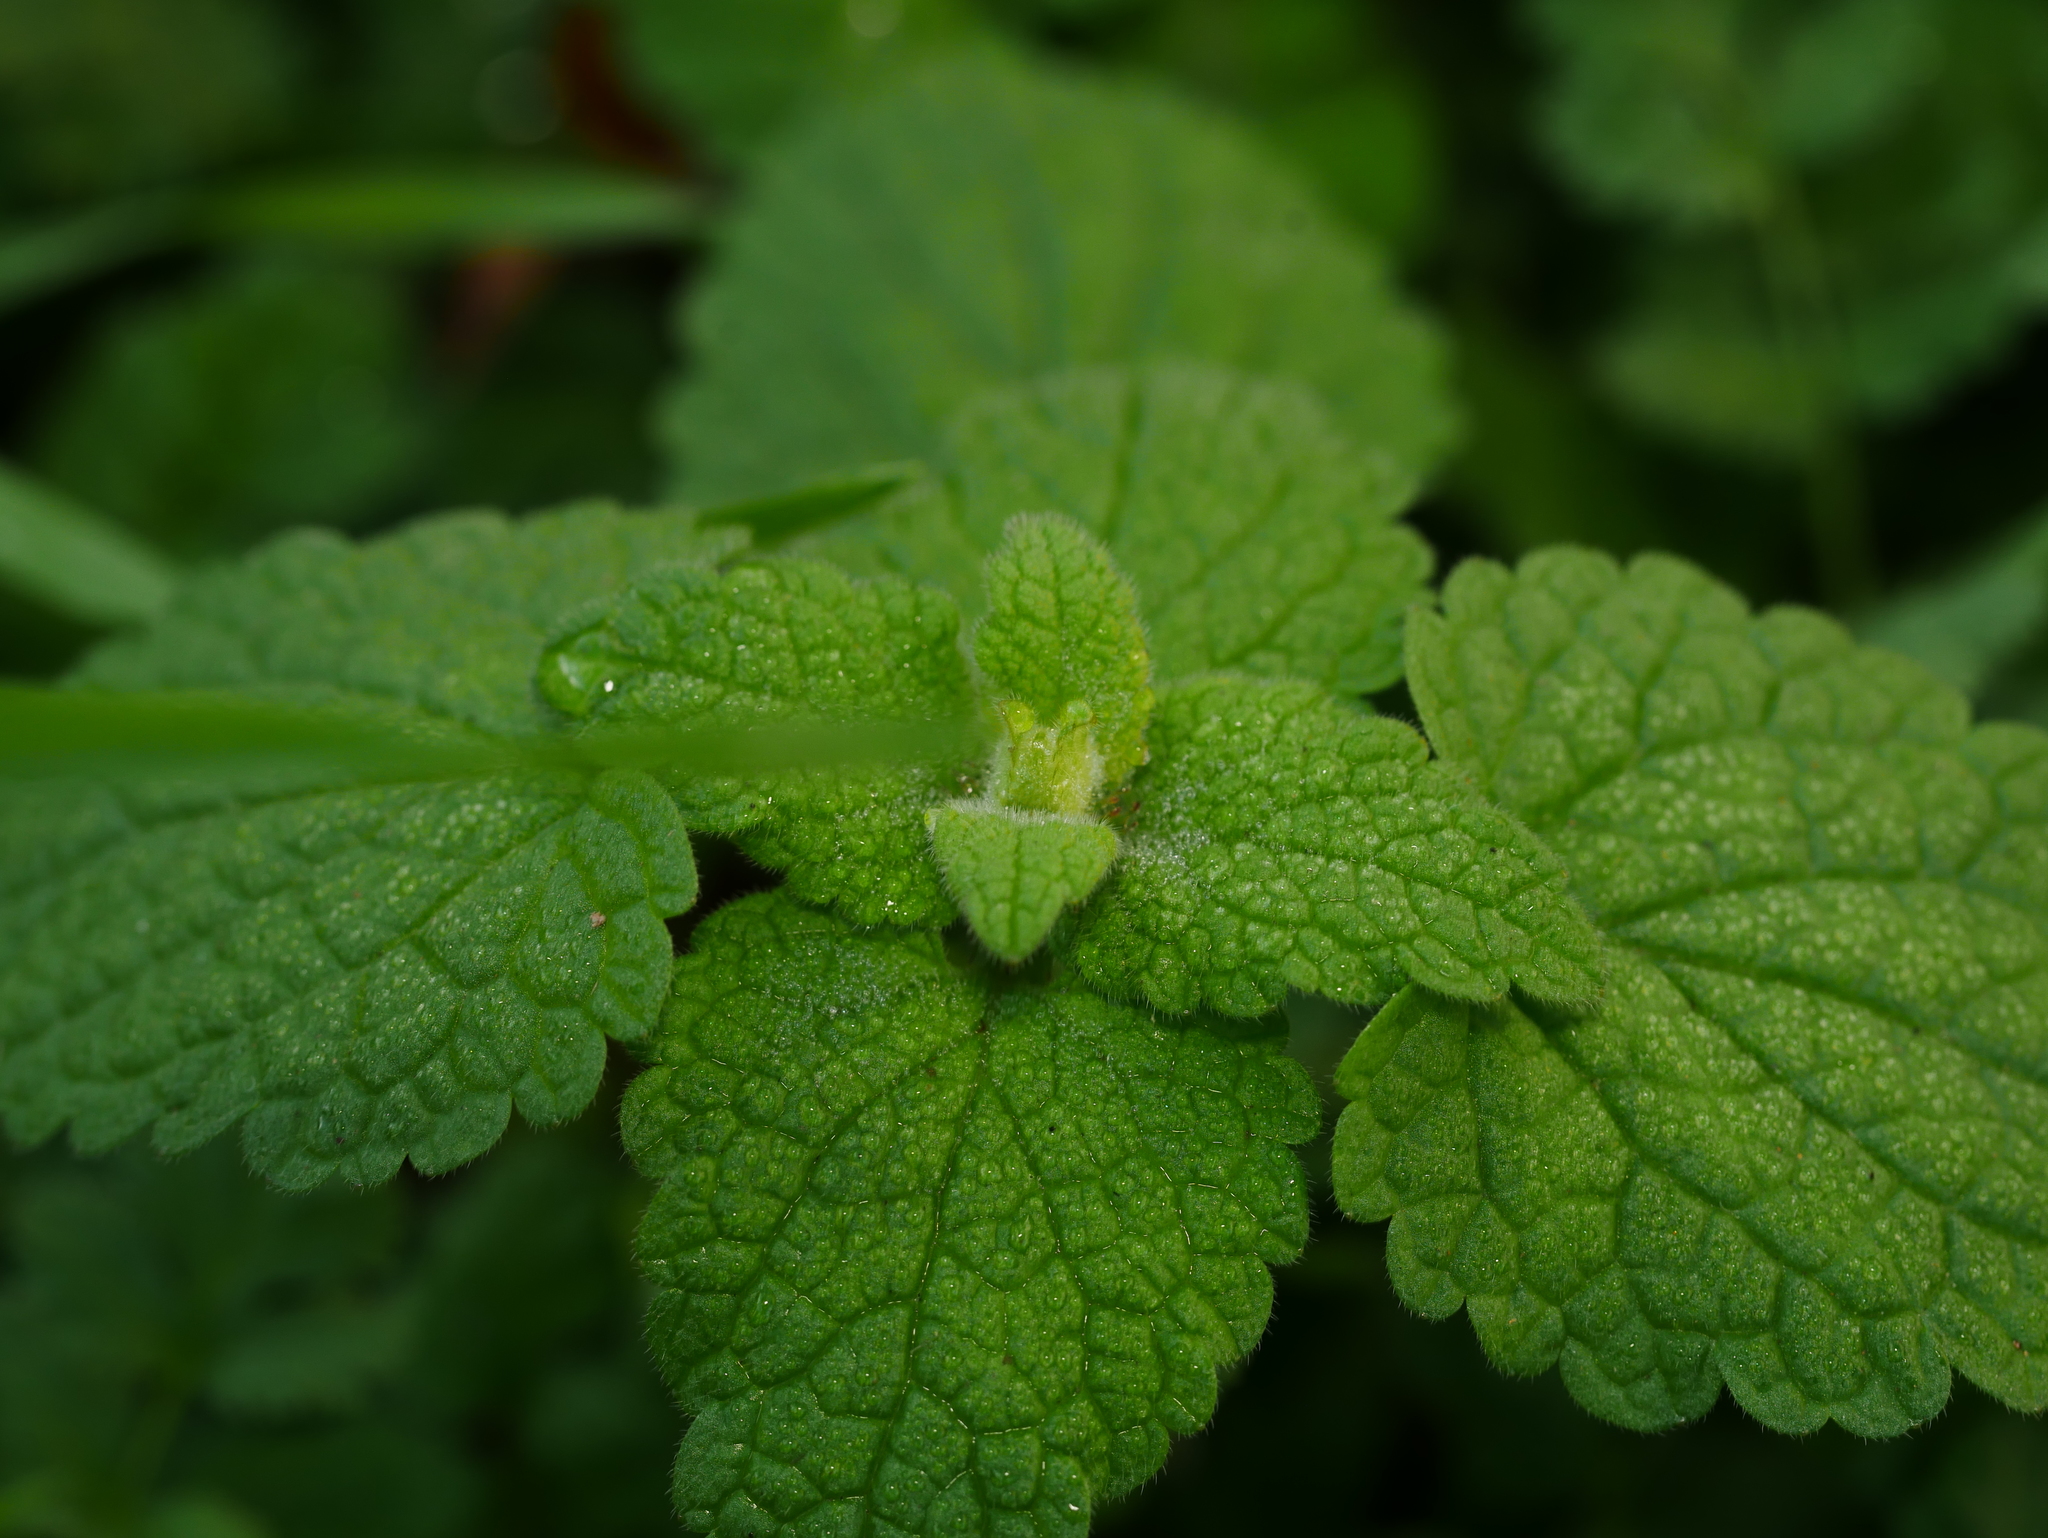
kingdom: Plantae
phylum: Tracheophyta
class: Magnoliopsida
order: Lamiales
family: Lamiaceae
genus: Lamium
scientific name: Lamium purpureum
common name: Red dead-nettle
